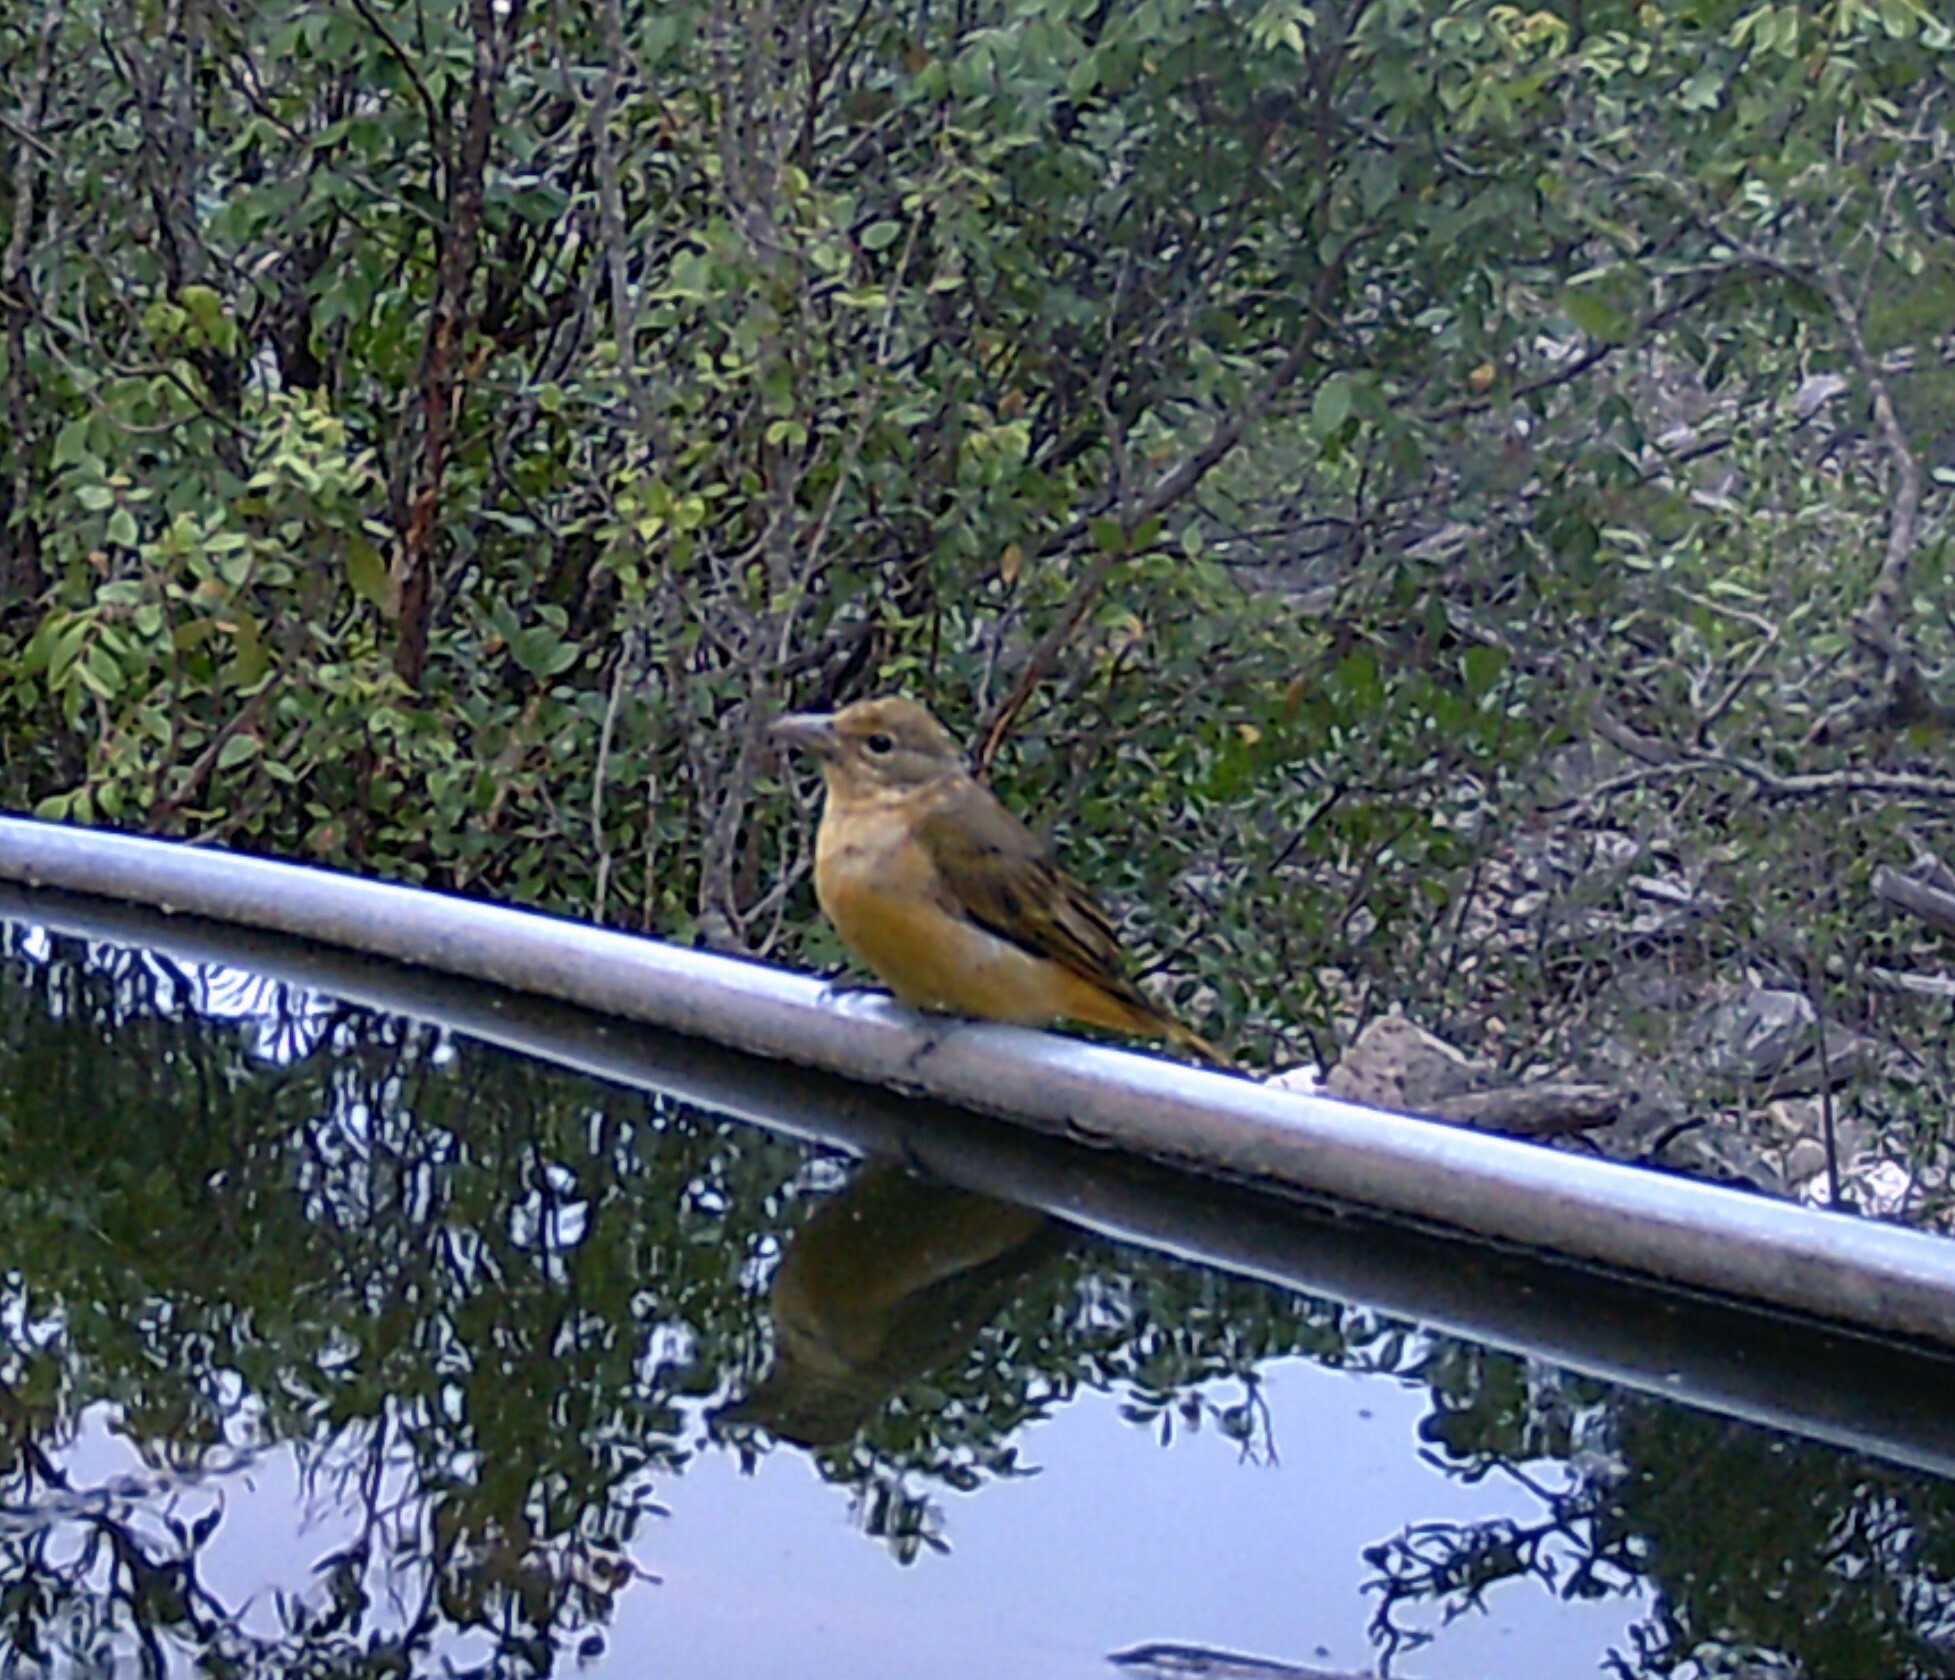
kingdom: Animalia
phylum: Chordata
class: Aves
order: Passeriformes
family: Cardinalidae
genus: Piranga
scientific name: Piranga rubra
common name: Summer tanager
